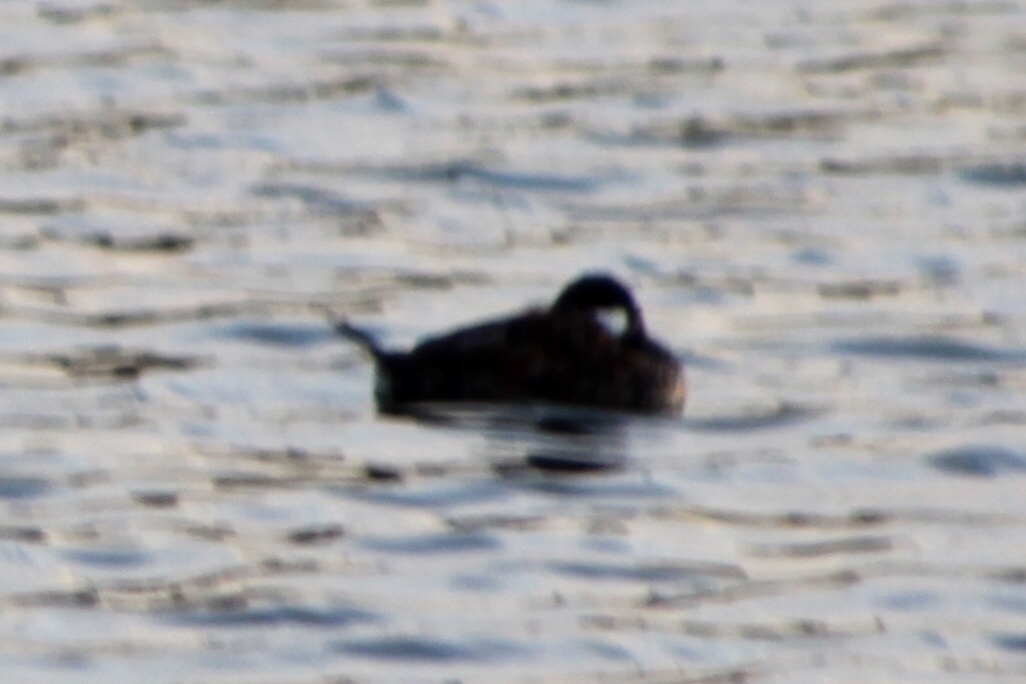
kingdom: Animalia
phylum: Chordata
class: Aves
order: Anseriformes
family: Anatidae
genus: Oxyura
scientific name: Oxyura jamaicensis
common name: Ruddy duck
